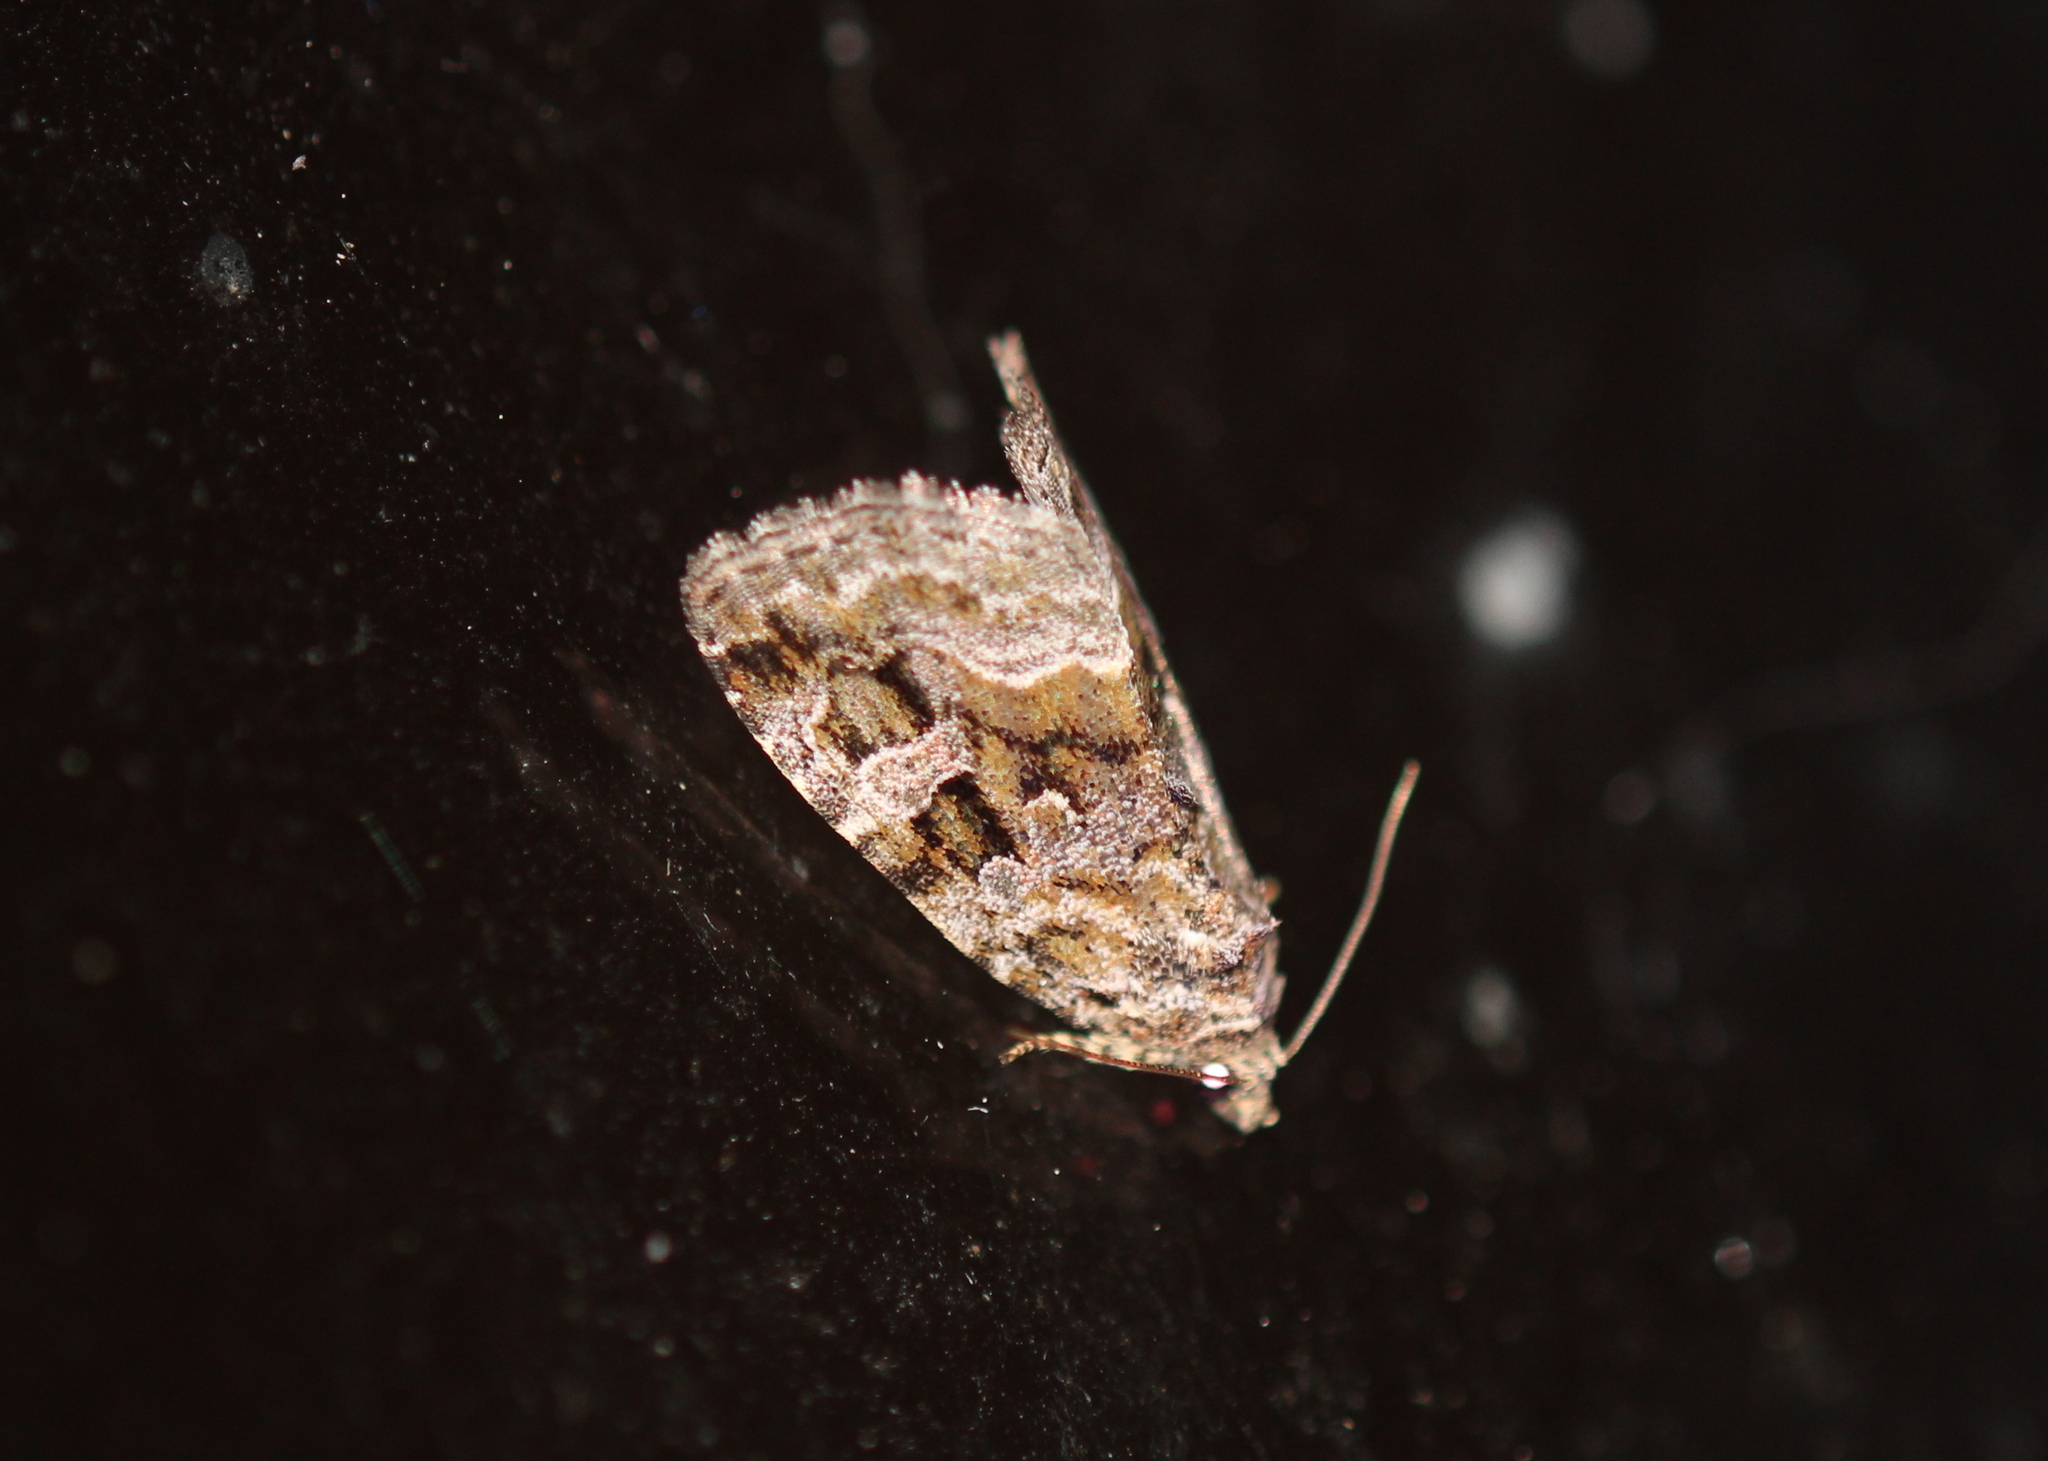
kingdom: Animalia
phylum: Arthropoda
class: Insecta
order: Lepidoptera
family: Noctuidae
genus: Protodeltote
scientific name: Protodeltote muscosula
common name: Large mossy glyph
